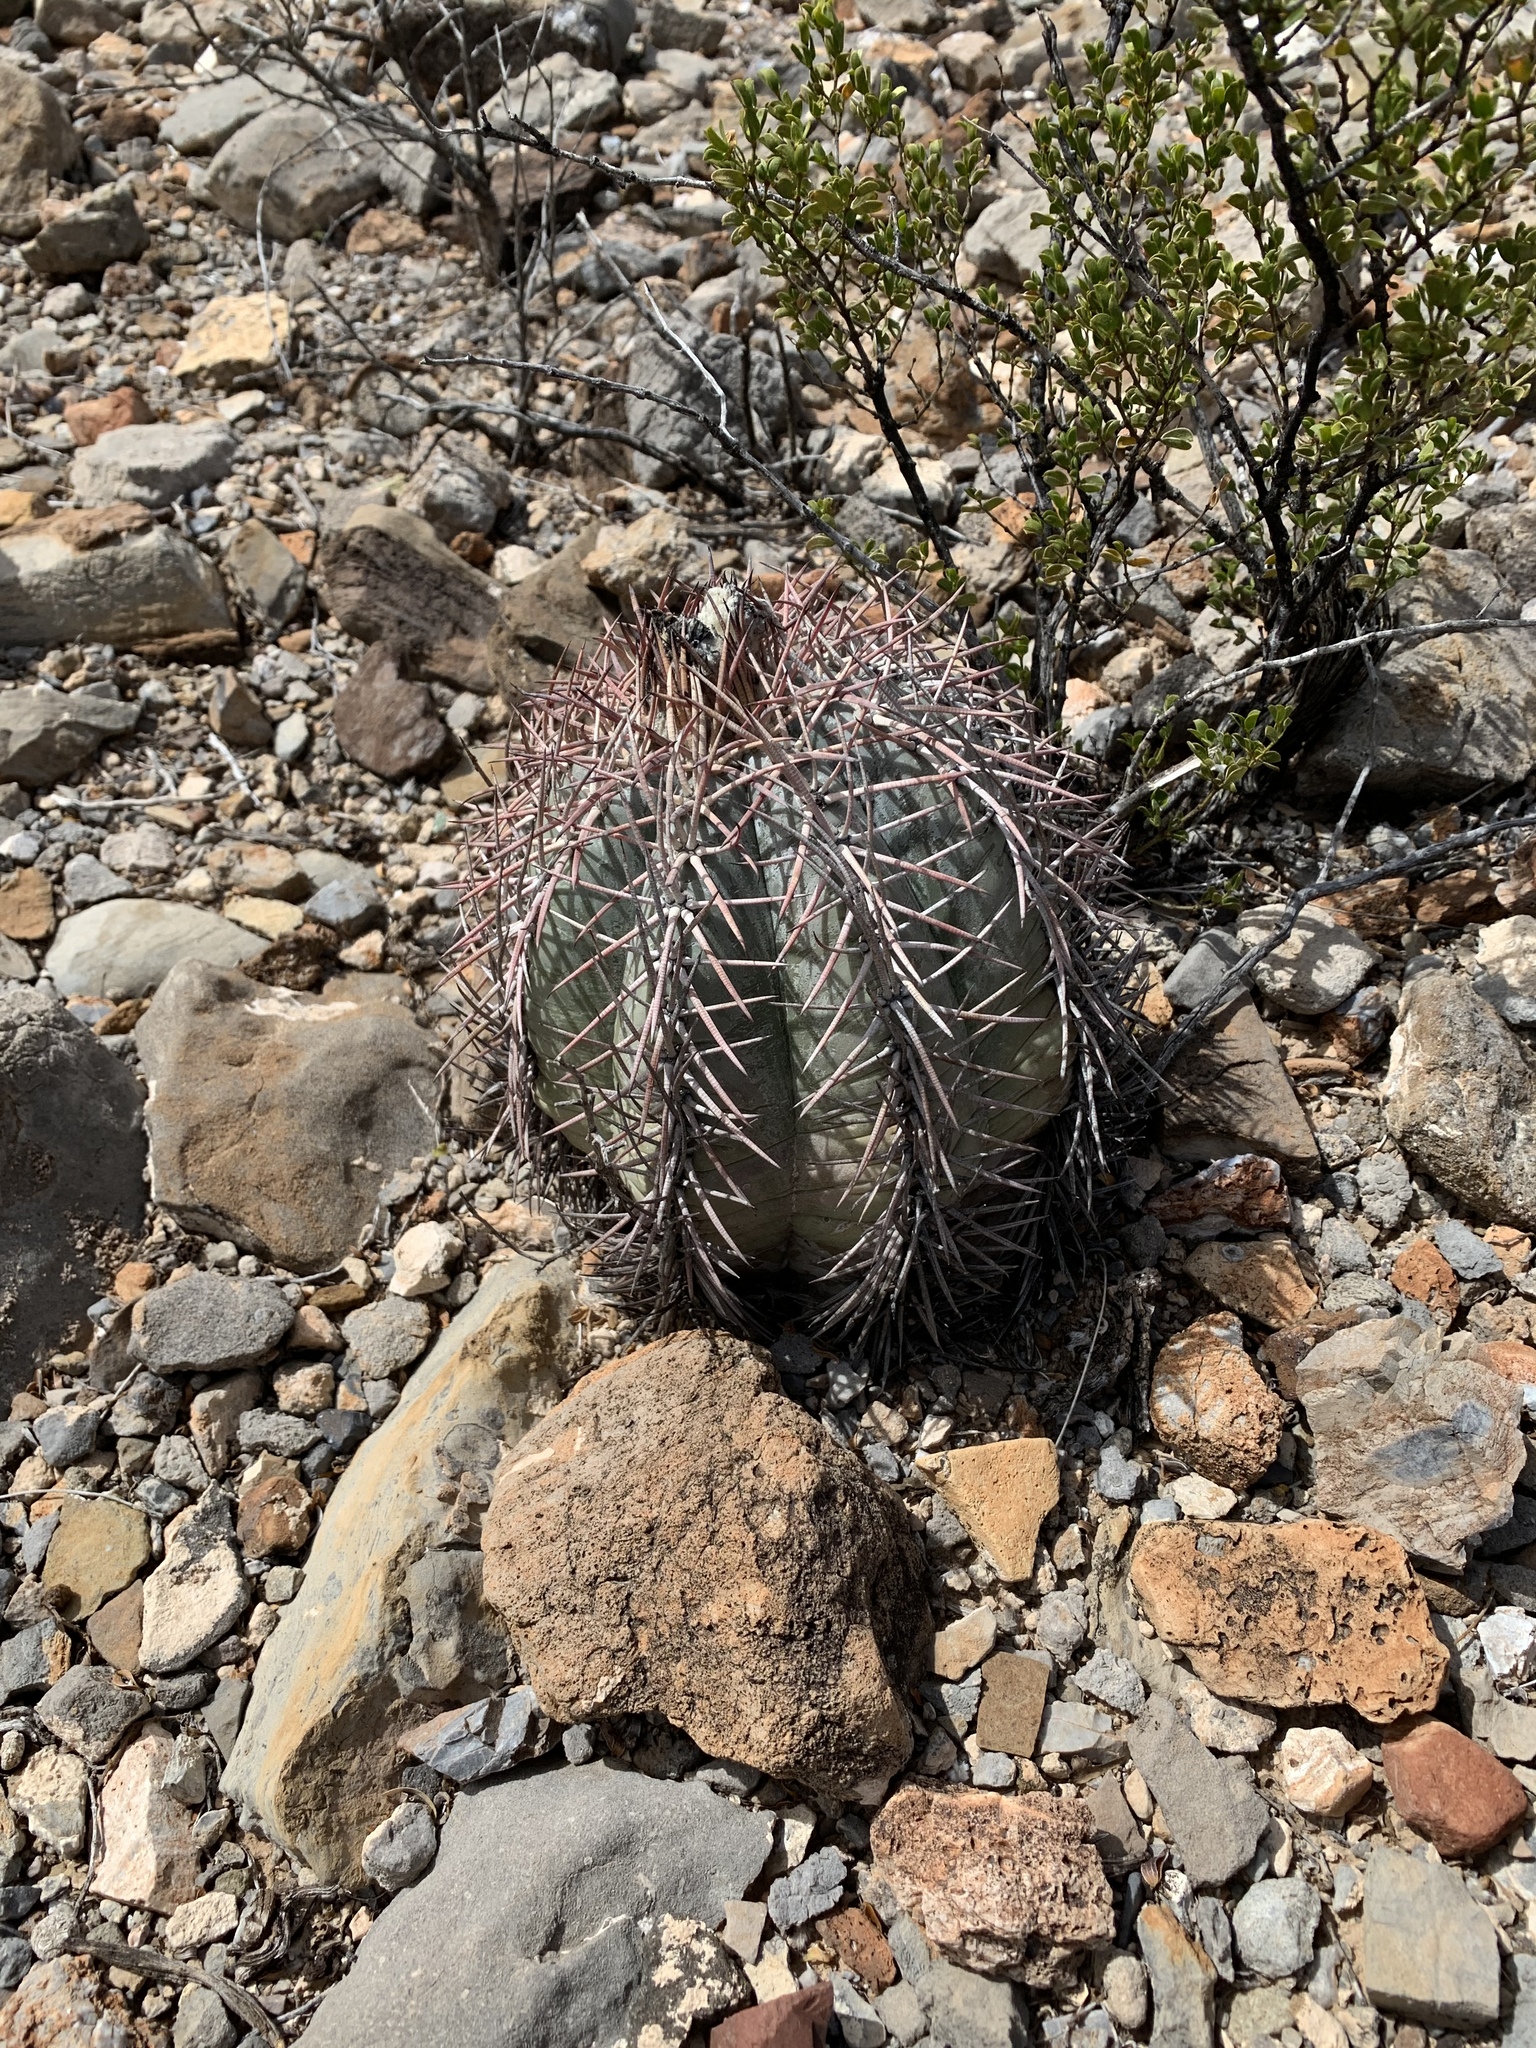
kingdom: Plantae
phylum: Tracheophyta
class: Magnoliopsida
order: Caryophyllales
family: Cactaceae
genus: Echinocactus
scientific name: Echinocactus horizonthalonius
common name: Devilshead
